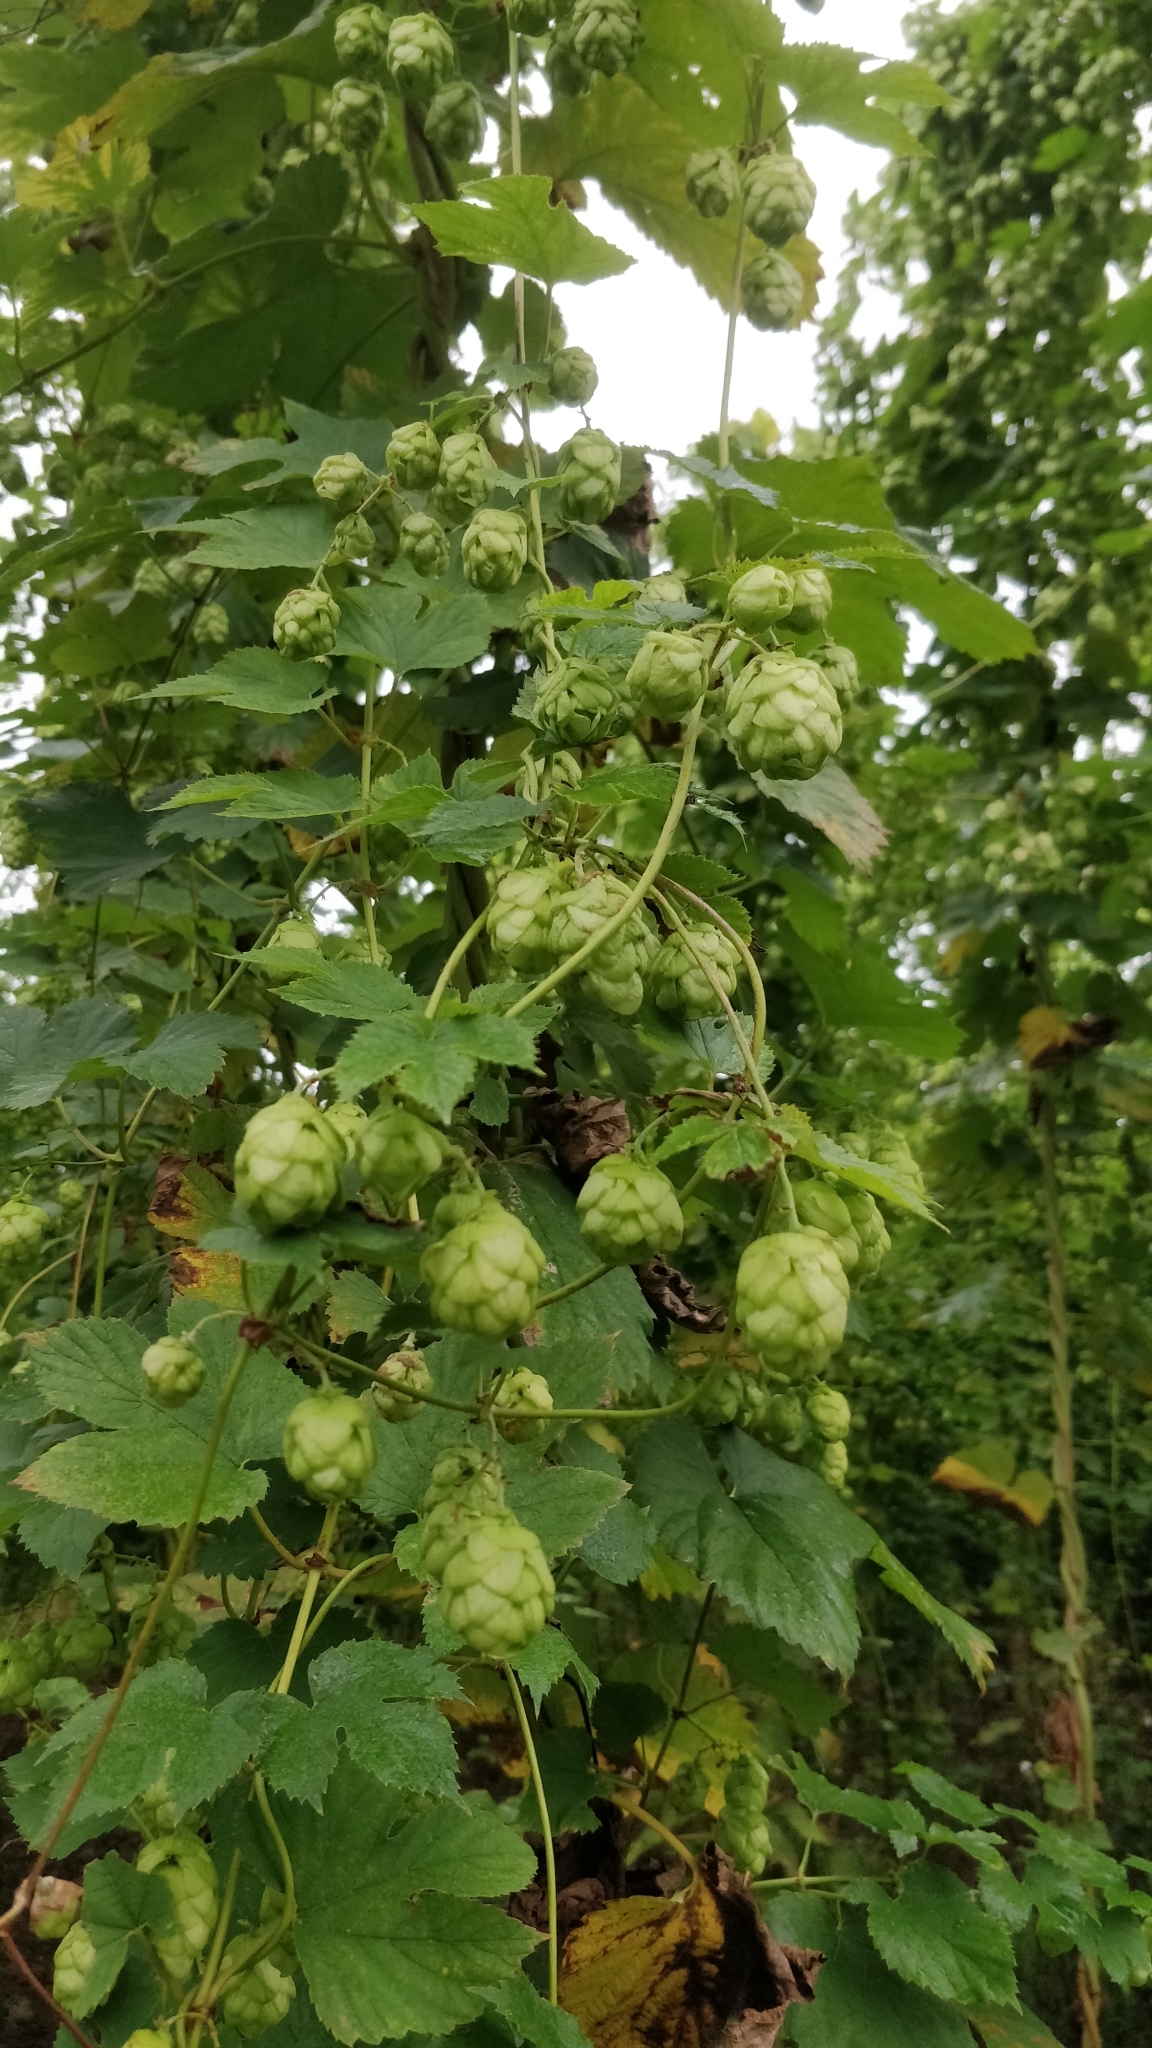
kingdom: Plantae
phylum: Tracheophyta
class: Magnoliopsida
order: Rosales
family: Cannabaceae
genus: Humulus
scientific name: Humulus lupulus
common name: Hop
